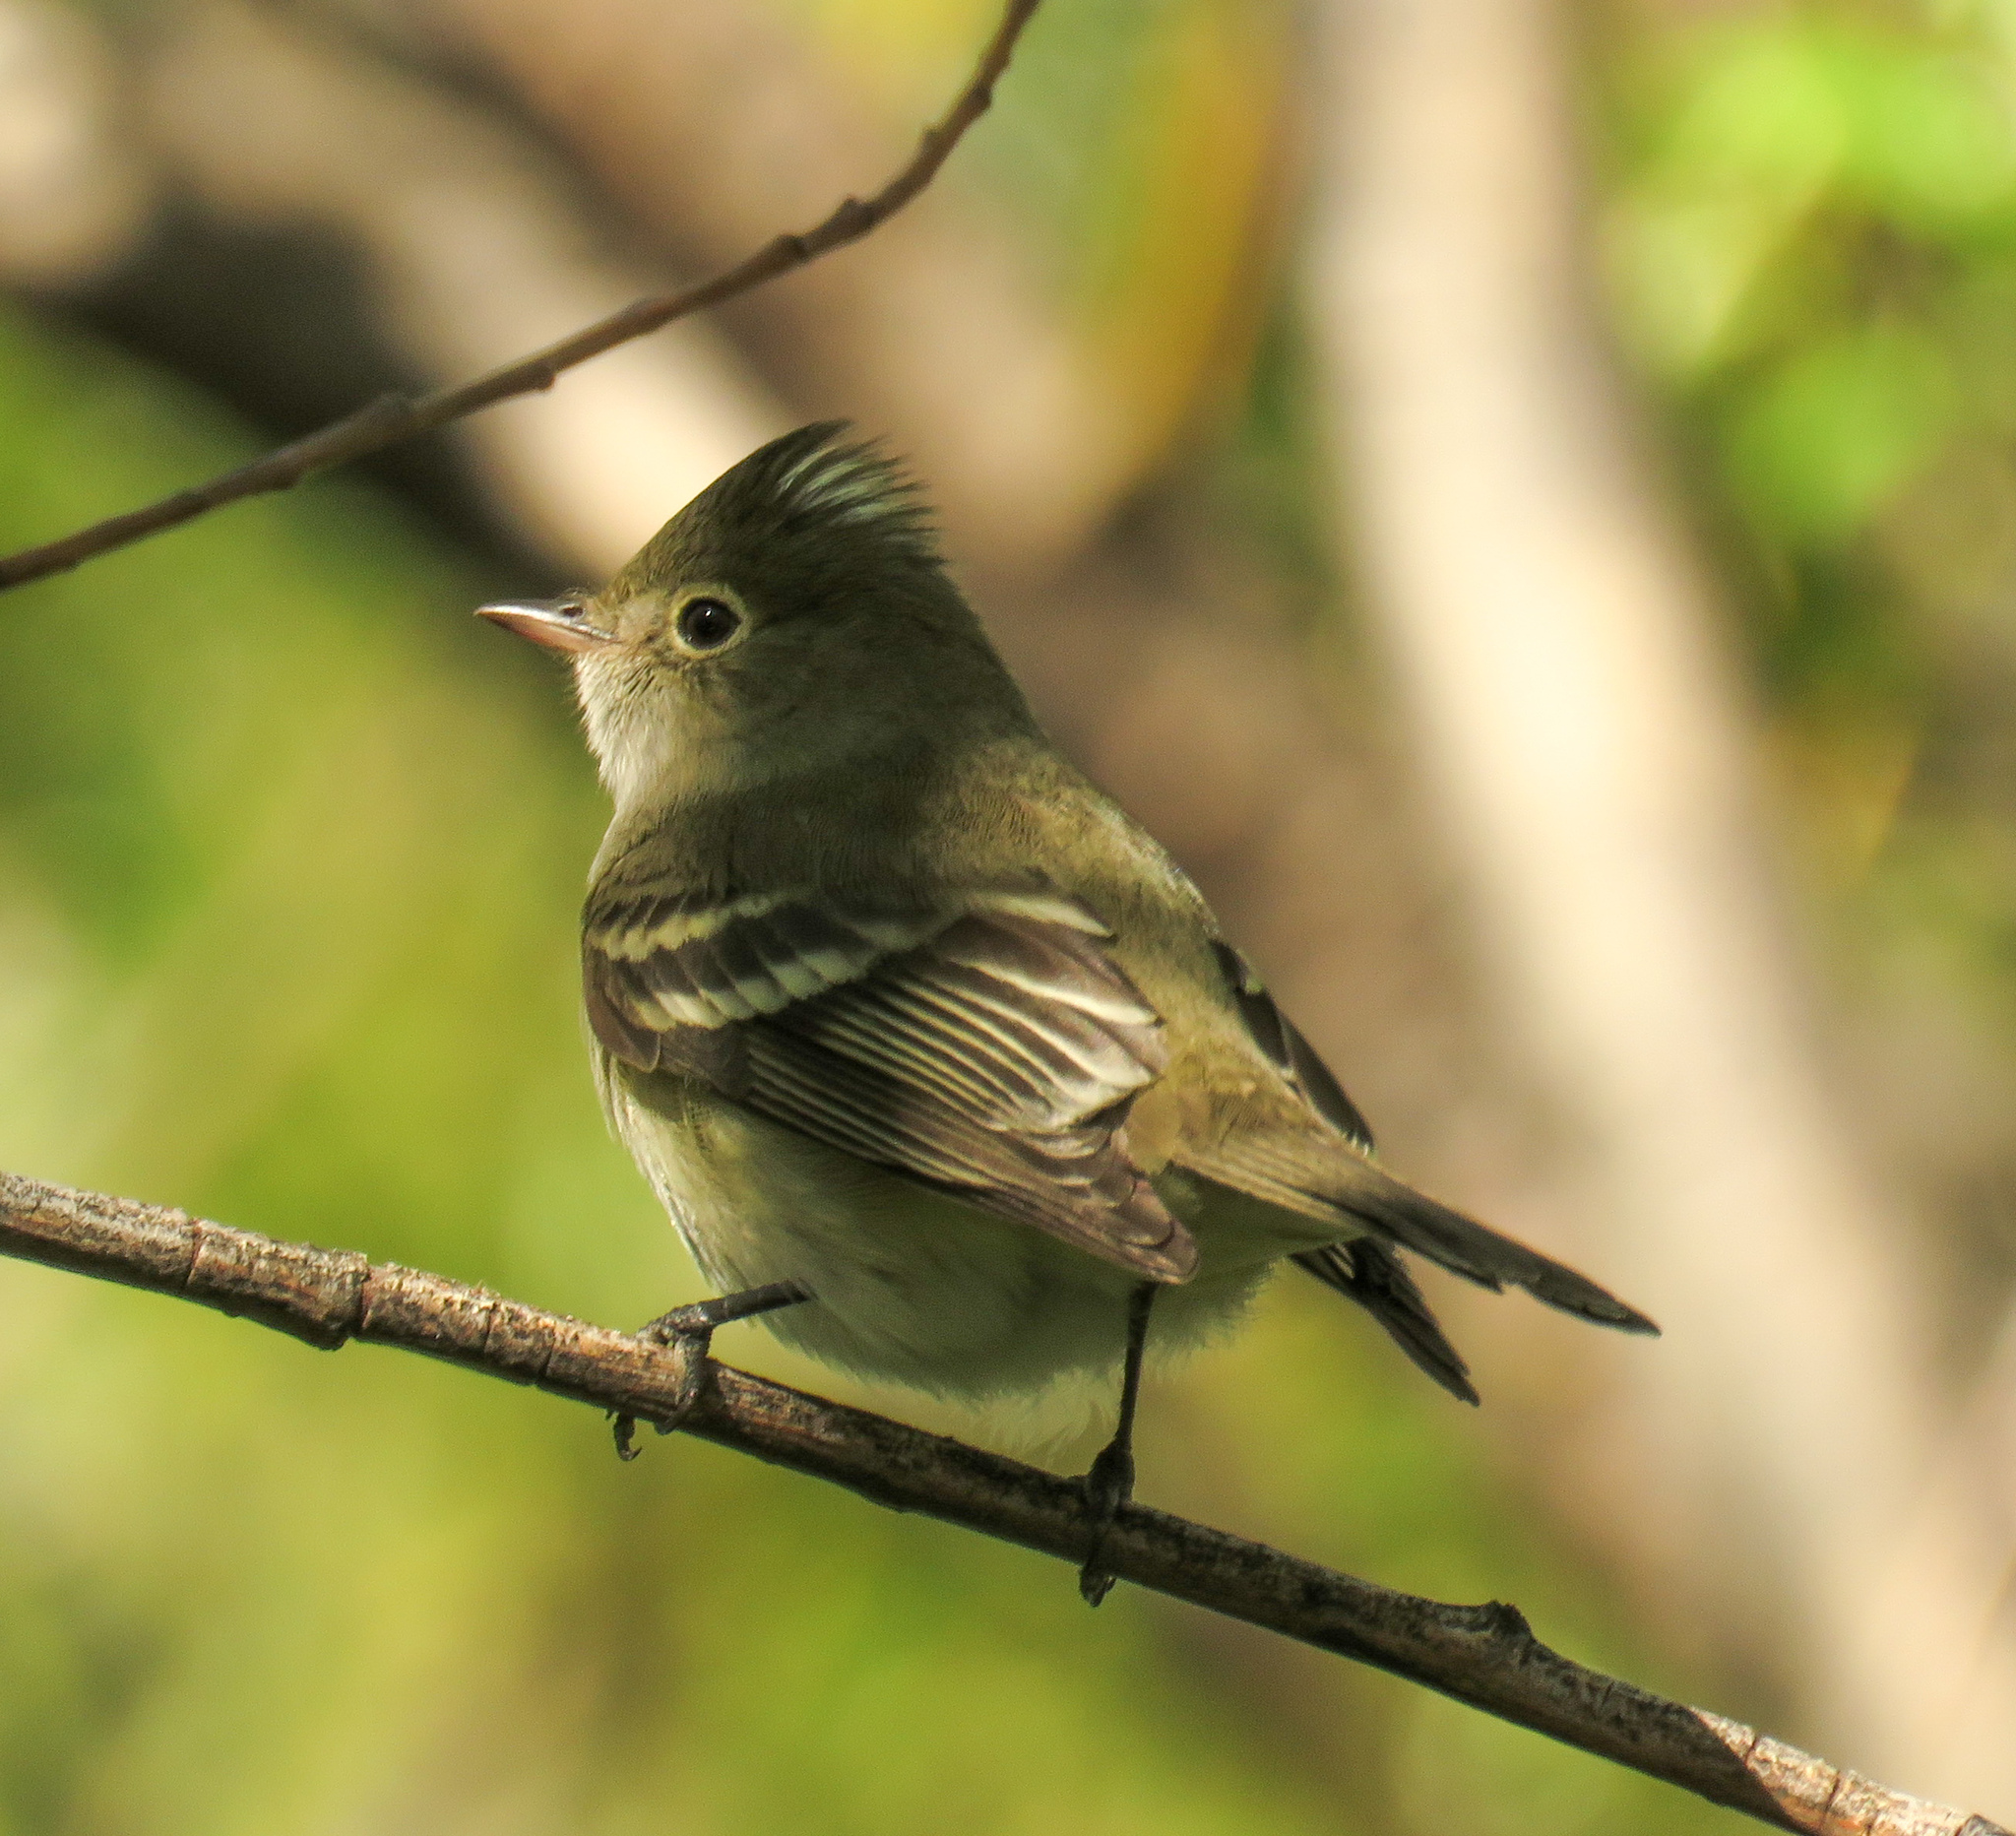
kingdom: Animalia
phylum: Chordata
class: Aves
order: Passeriformes
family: Tyrannidae
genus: Elaenia
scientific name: Elaenia albiceps
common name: White-crested elaenia
